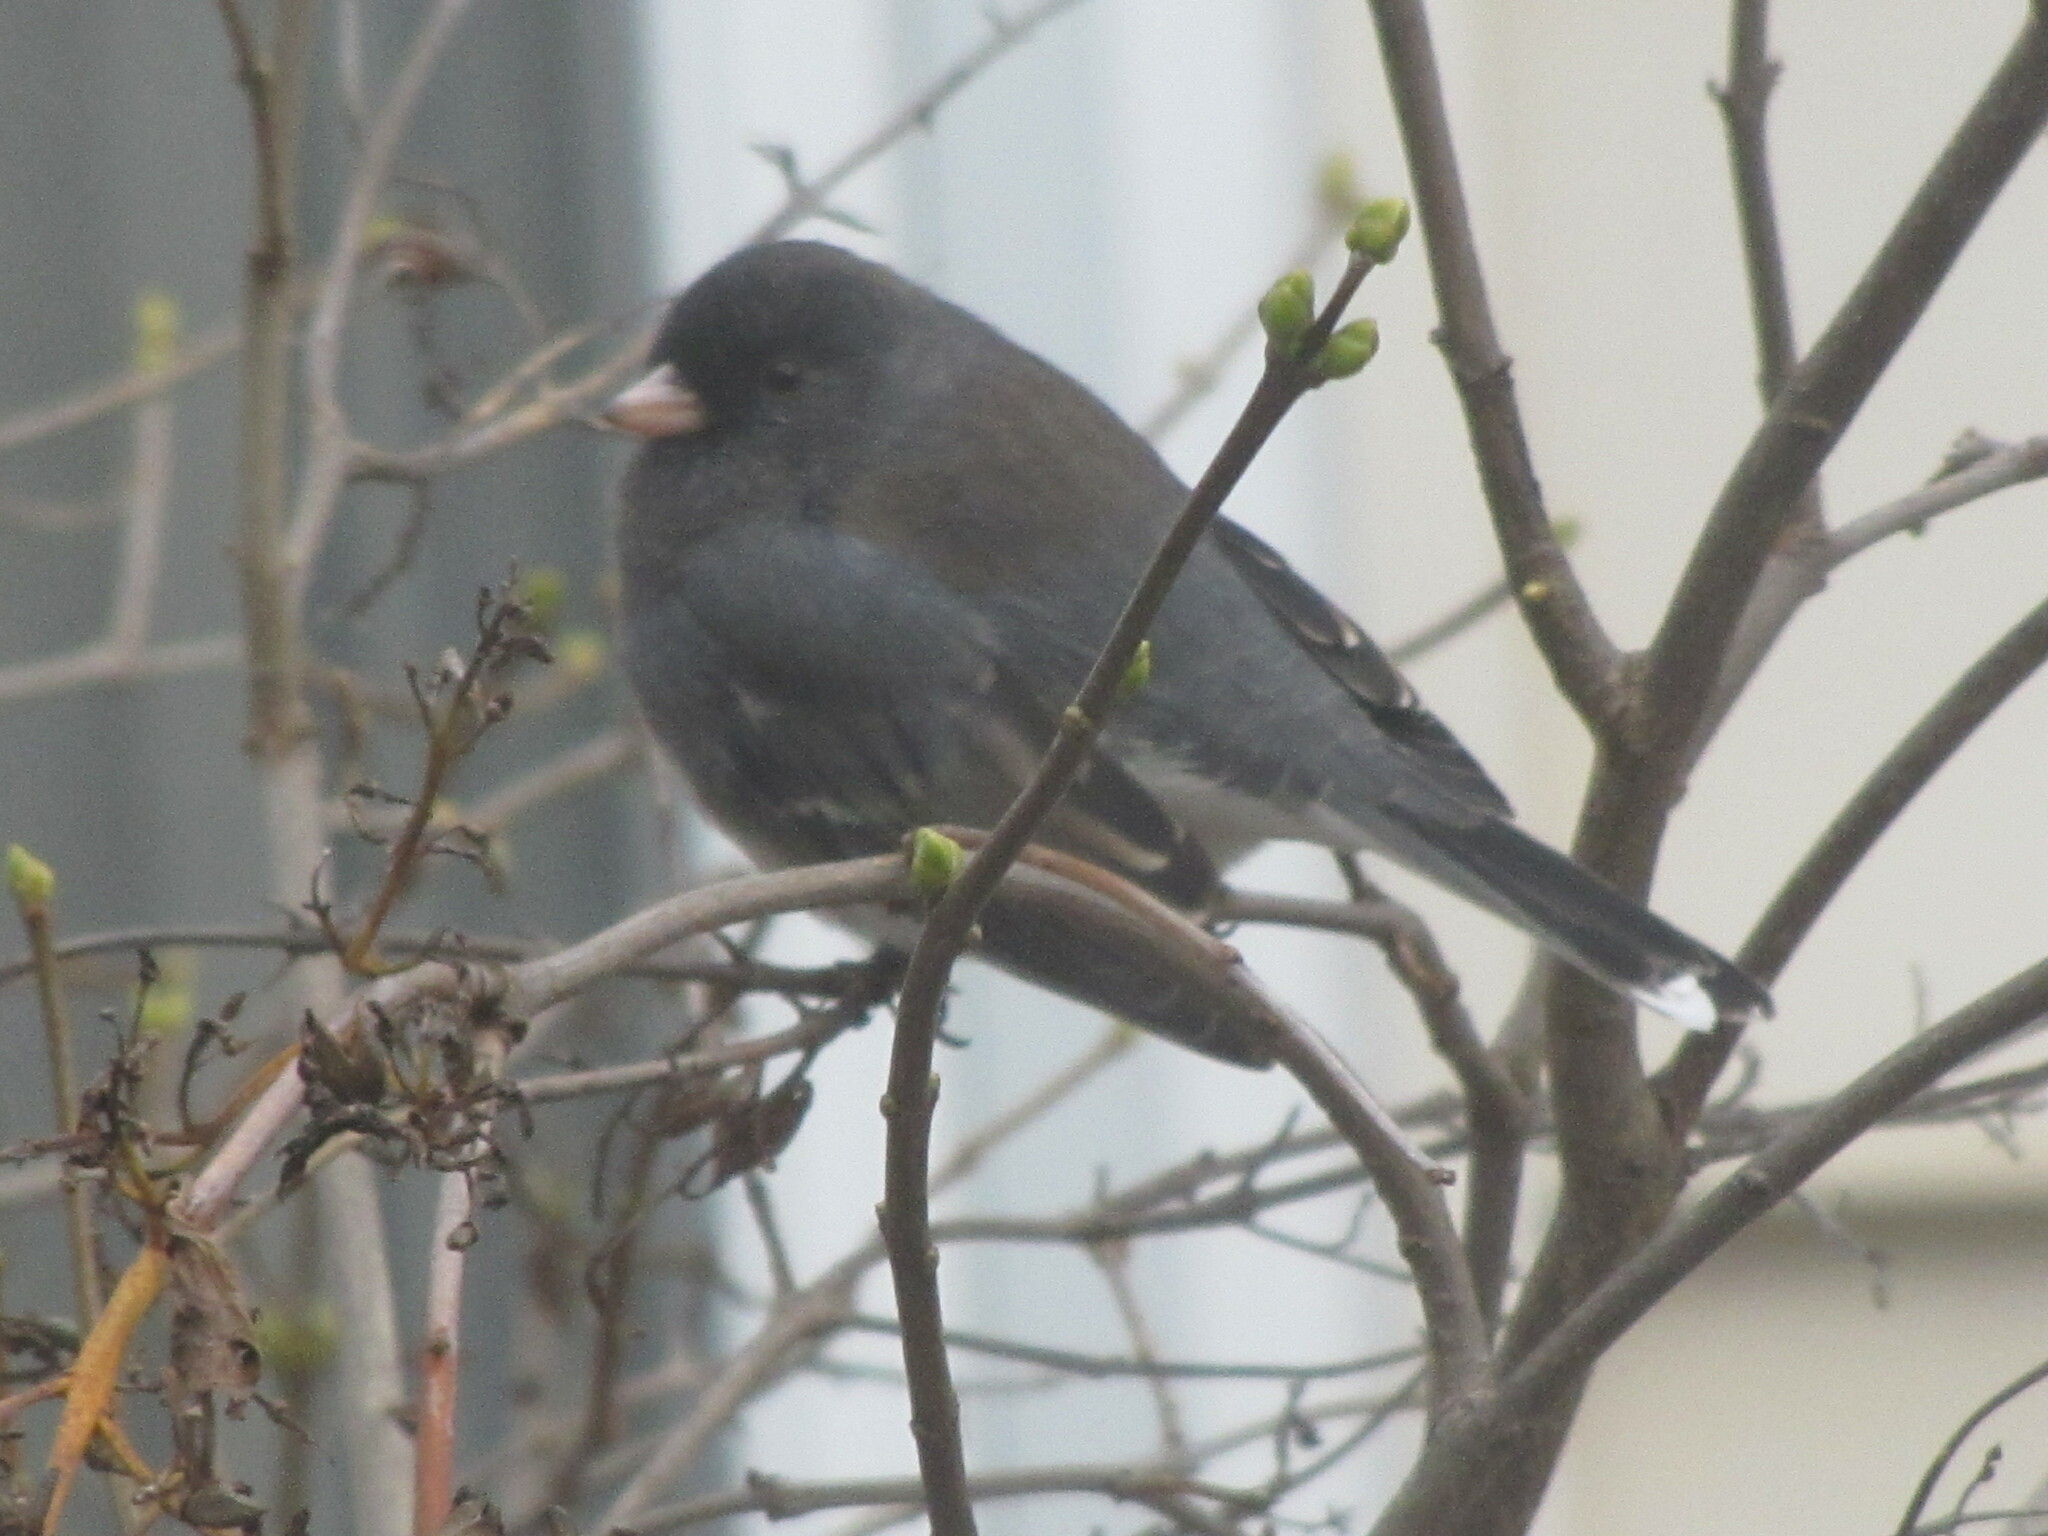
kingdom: Animalia
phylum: Chordata
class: Aves
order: Passeriformes
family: Passerellidae
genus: Junco
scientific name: Junco hyemalis
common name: Dark-eyed junco
